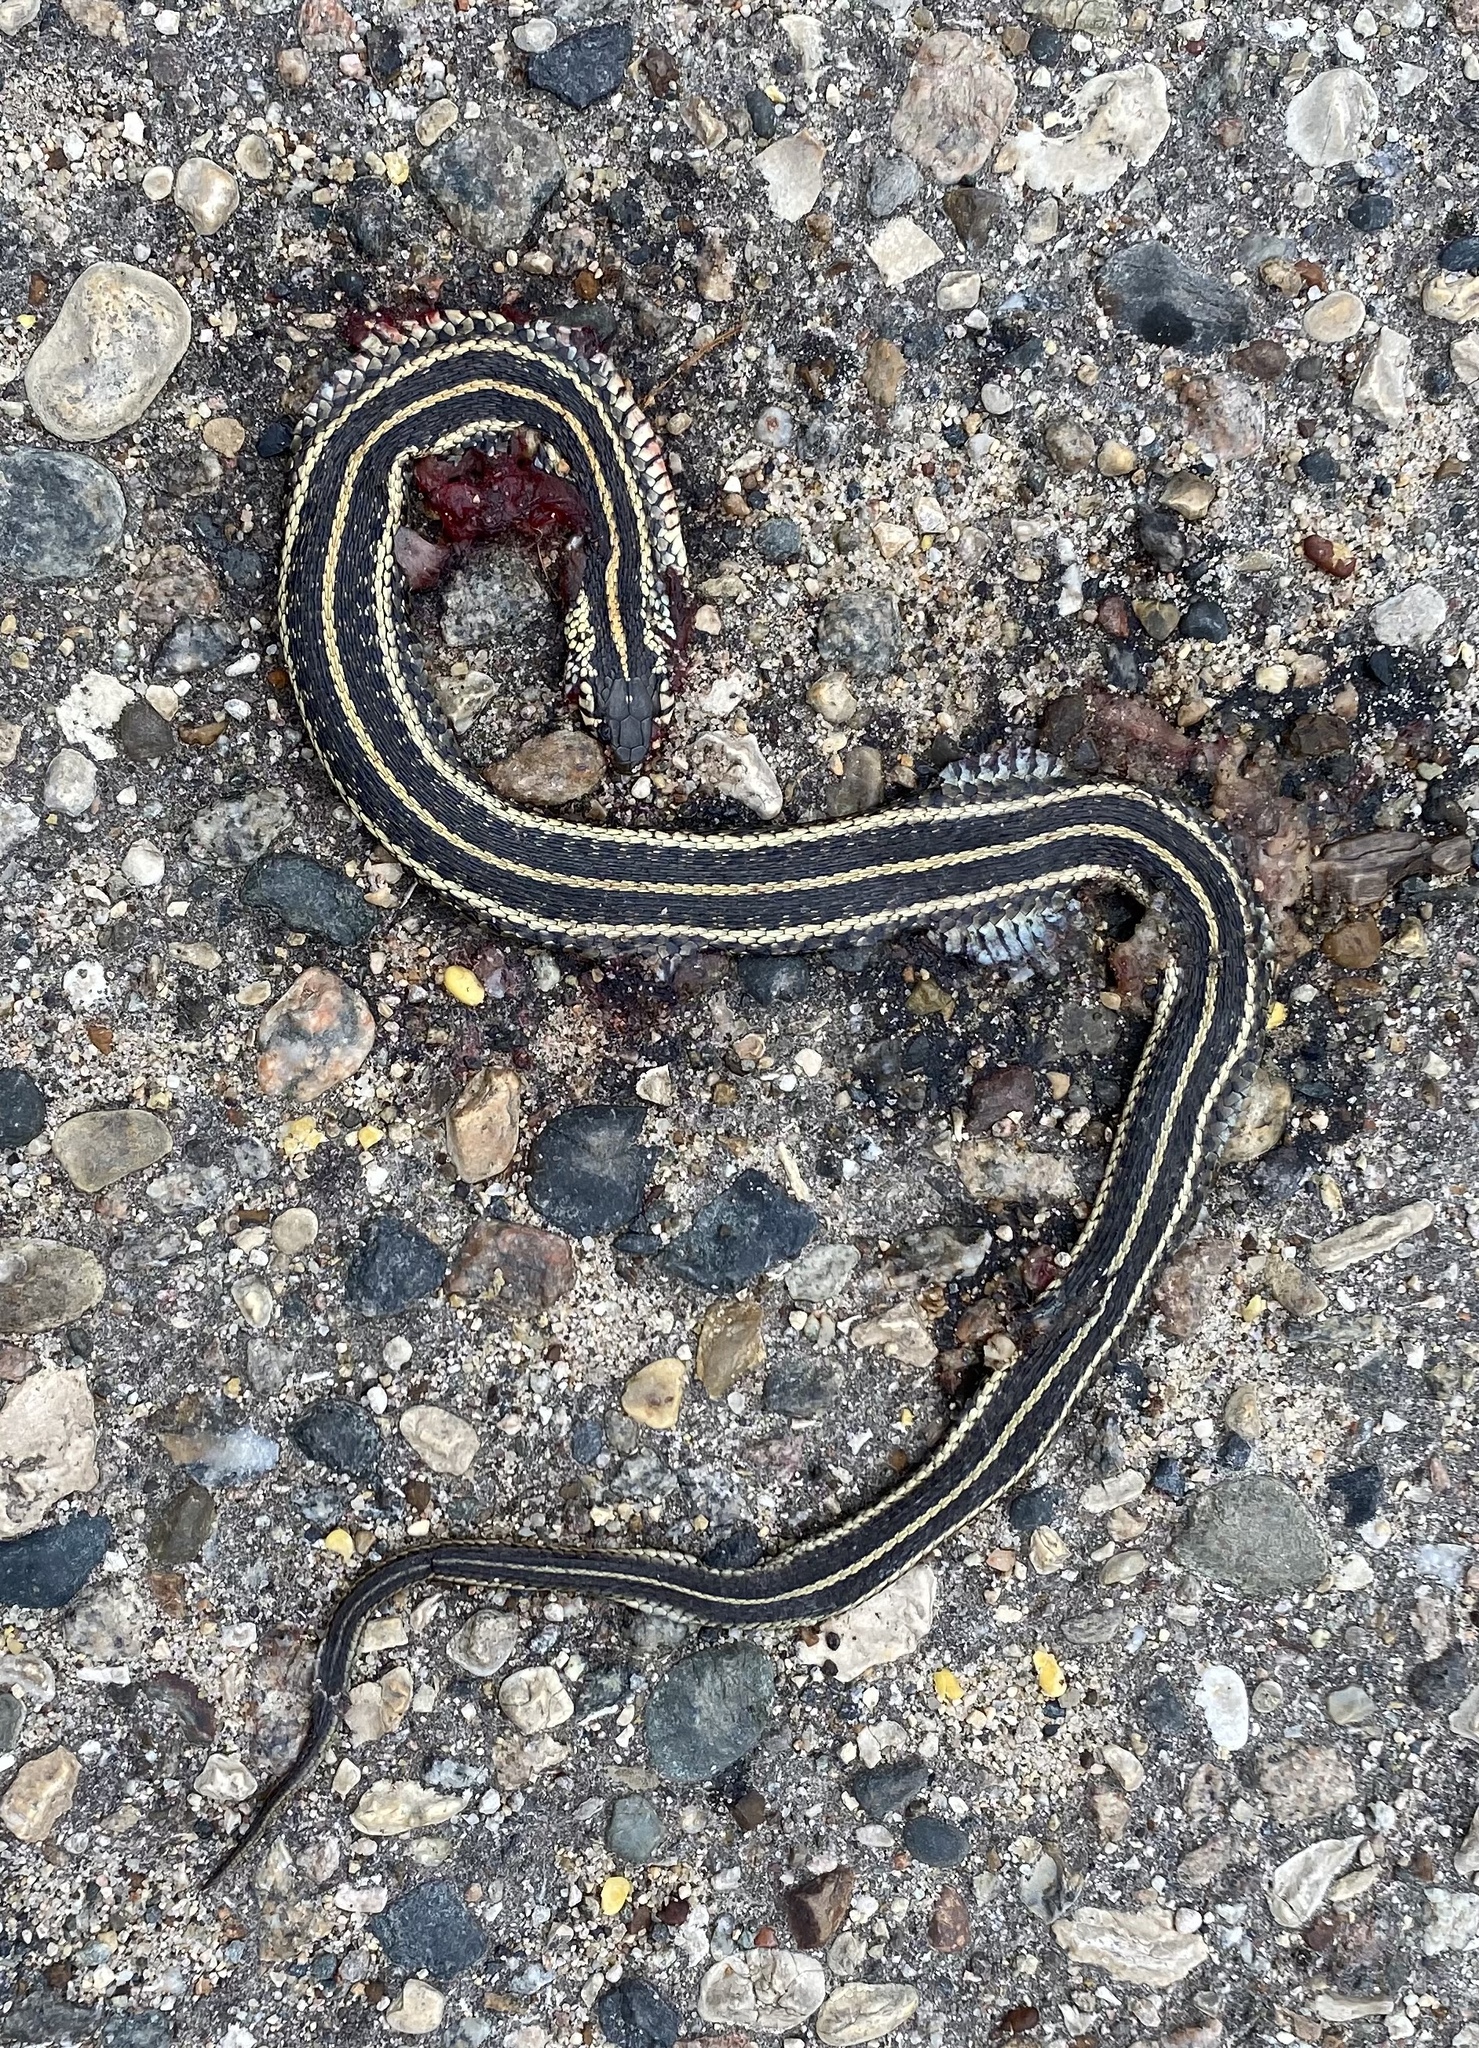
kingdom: Animalia
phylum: Chordata
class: Squamata
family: Colubridae
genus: Thamnophis
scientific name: Thamnophis radix
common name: Plains garter snake
